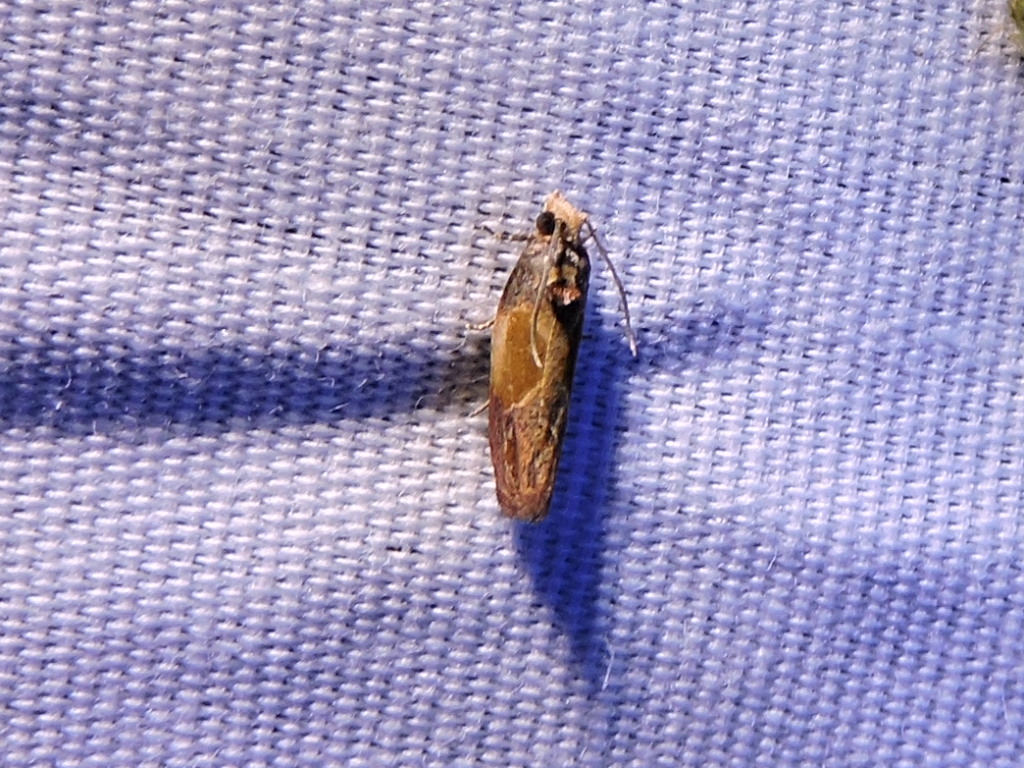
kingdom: Animalia
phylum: Arthropoda
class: Insecta
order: Lepidoptera
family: Tortricidae
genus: Eumarozia
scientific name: Eumarozia malachitana
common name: Sculptured moth
